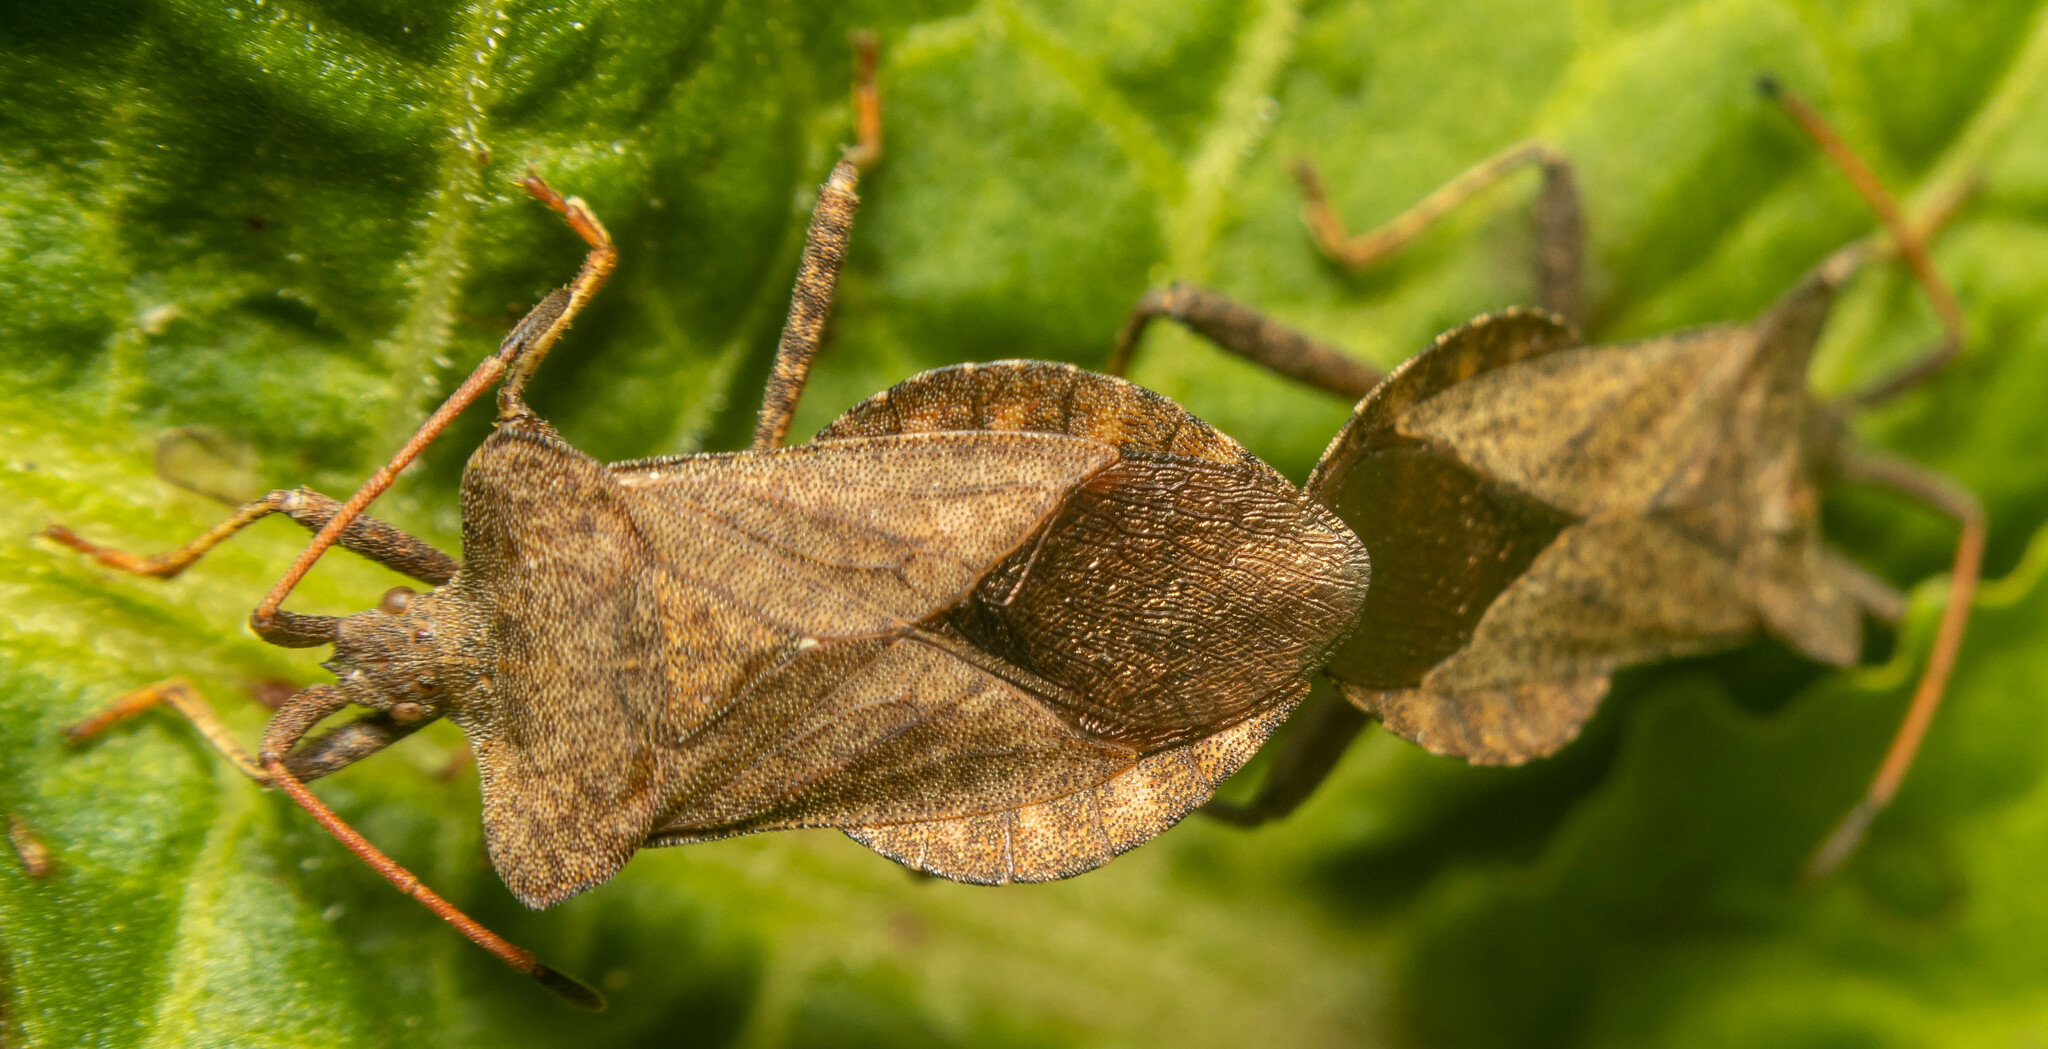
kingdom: Animalia
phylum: Arthropoda
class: Insecta
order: Hemiptera
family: Coreidae
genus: Coreus
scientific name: Coreus marginatus
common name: Dock bug
